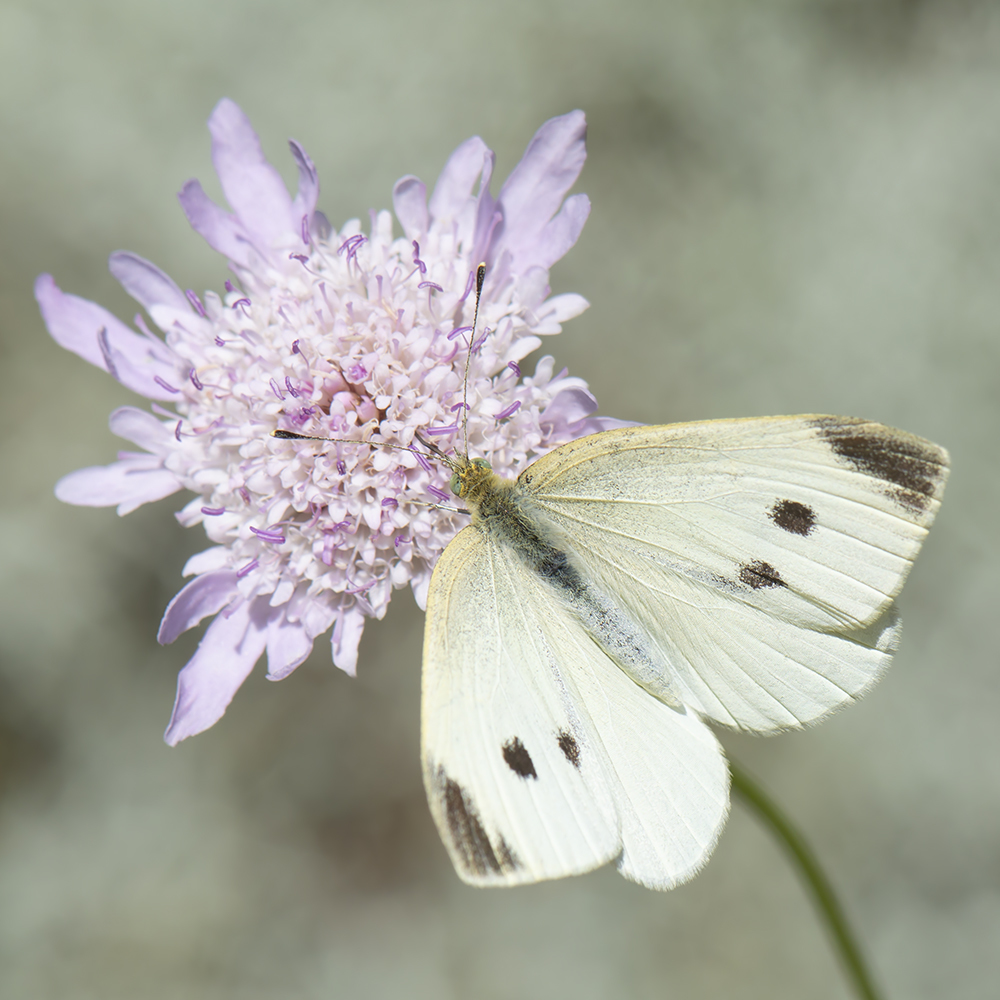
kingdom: Animalia
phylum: Arthropoda
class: Insecta
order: Lepidoptera
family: Pieridae
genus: Pieris
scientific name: Pieris rapae
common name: Small white
